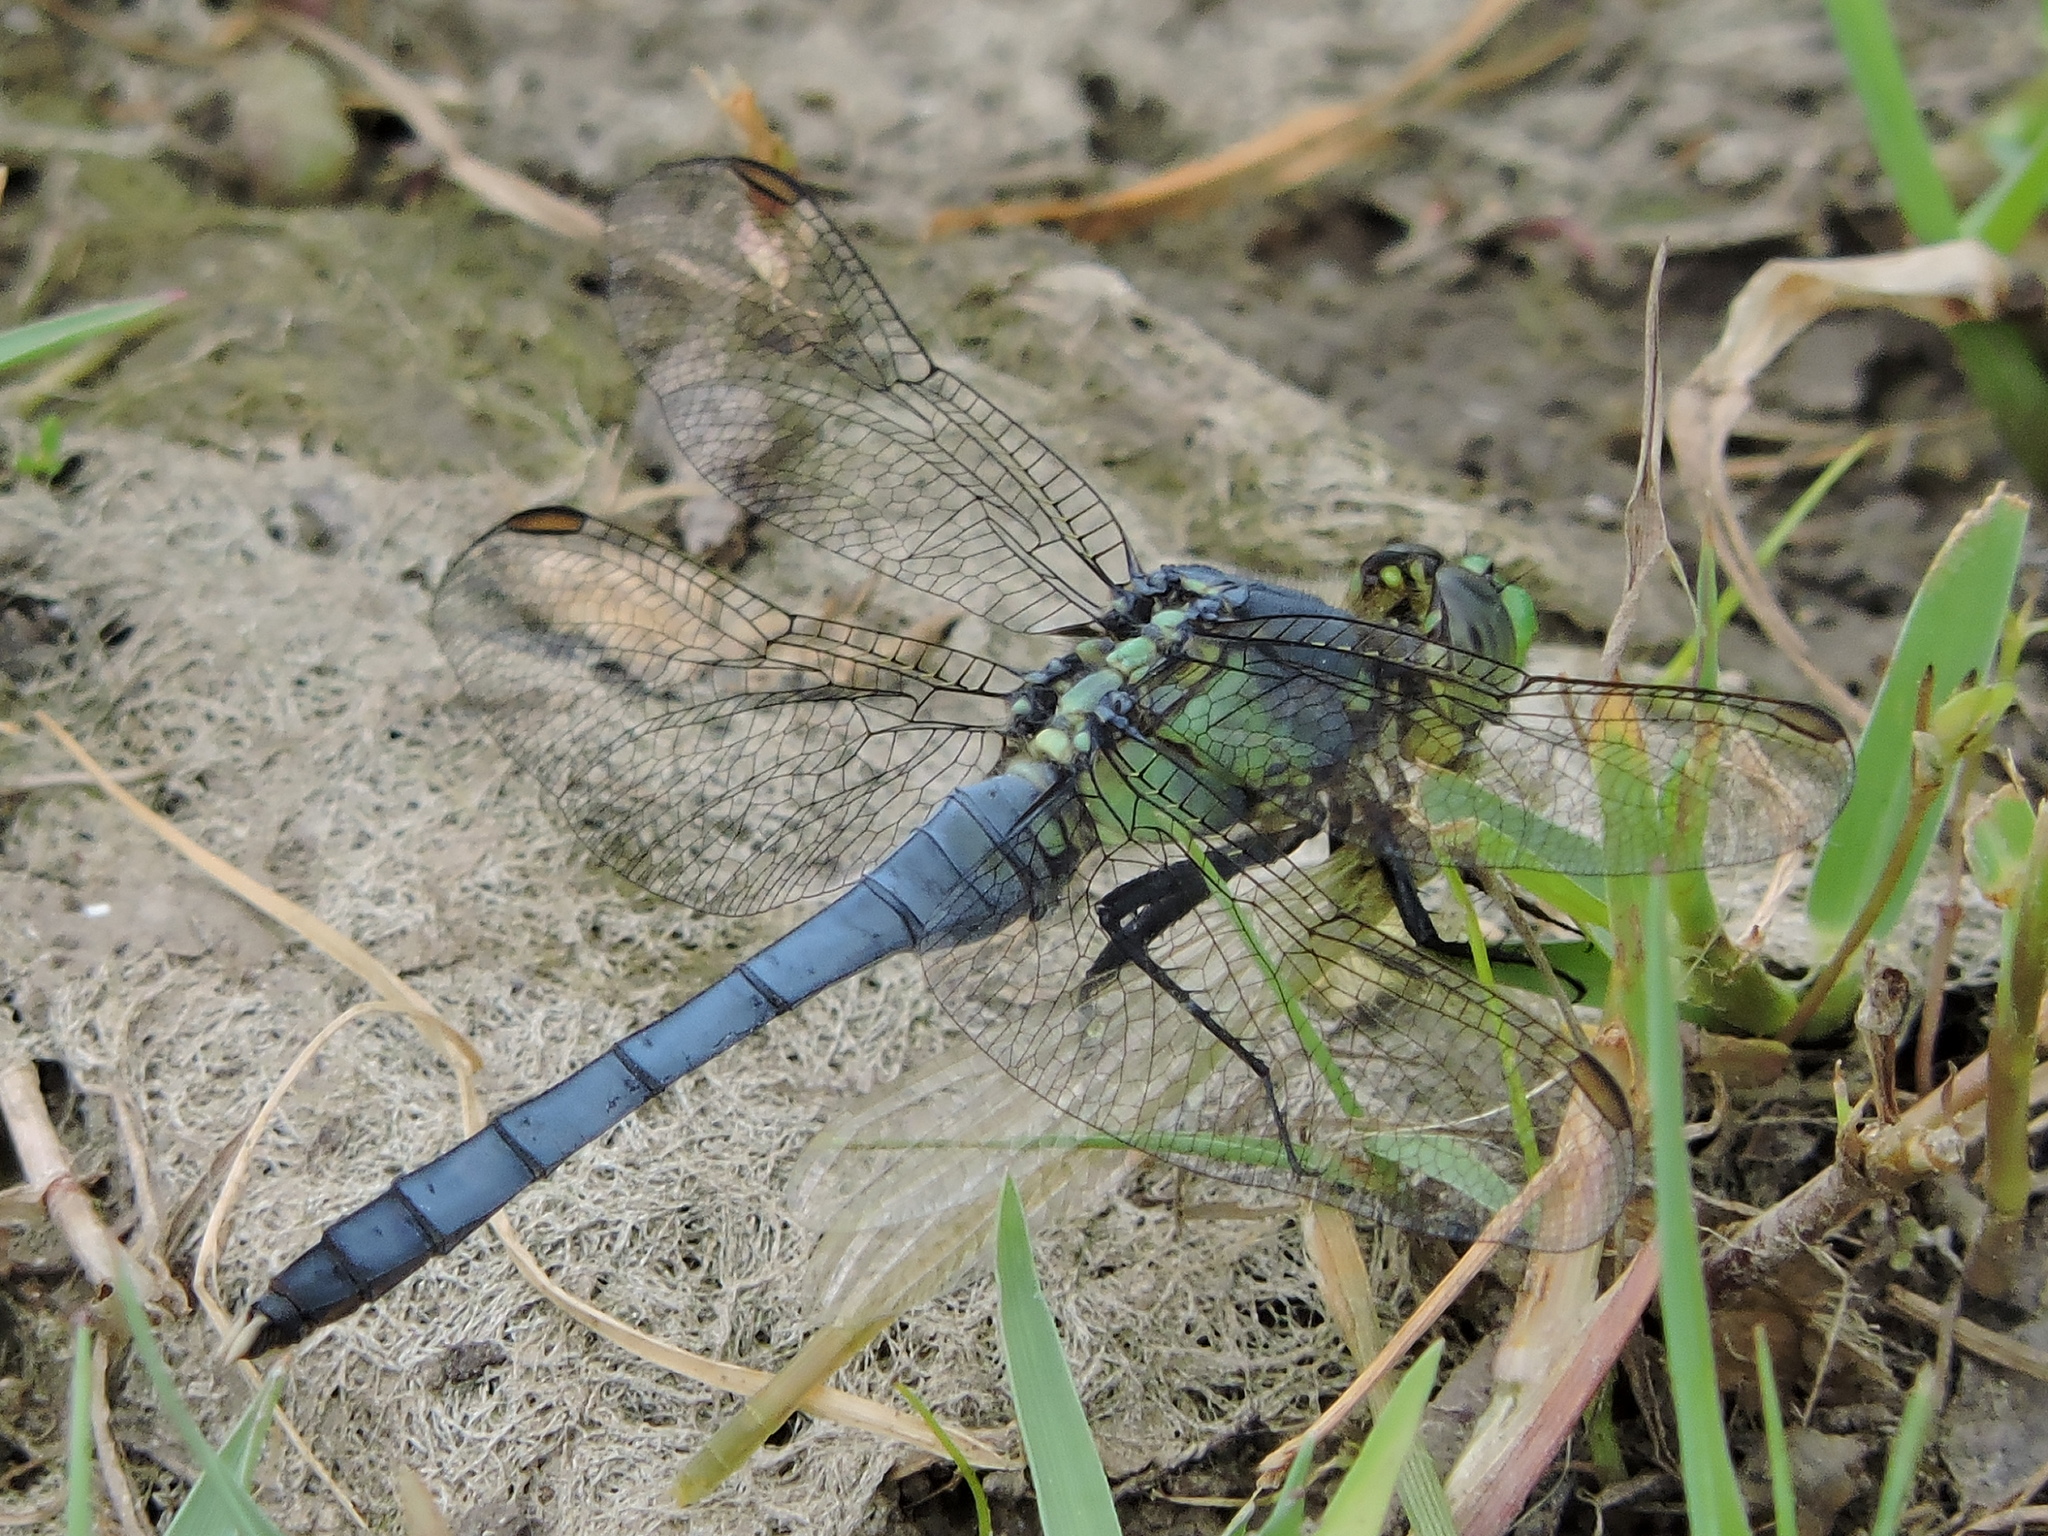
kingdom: Animalia
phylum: Arthropoda
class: Insecta
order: Odonata
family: Libellulidae
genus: Erythemis
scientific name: Erythemis simplicicollis
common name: Eastern pondhawk
